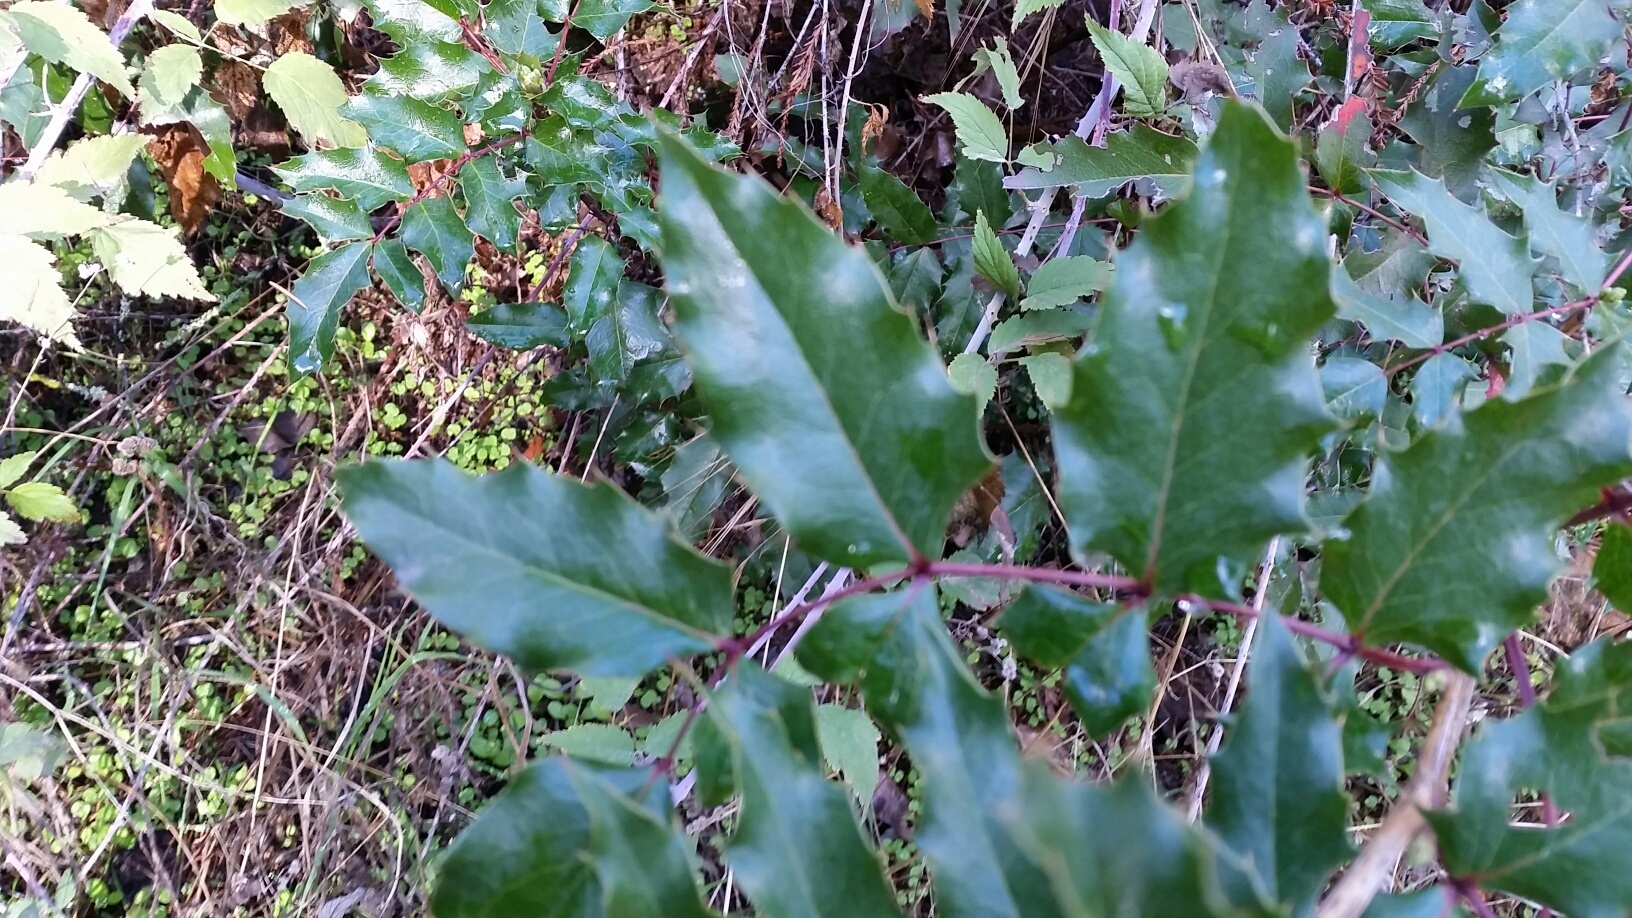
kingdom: Plantae
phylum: Tracheophyta
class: Magnoliopsida
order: Ranunculales
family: Berberidaceae
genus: Mahonia
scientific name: Mahonia aquifolium
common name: Oregon-grape
